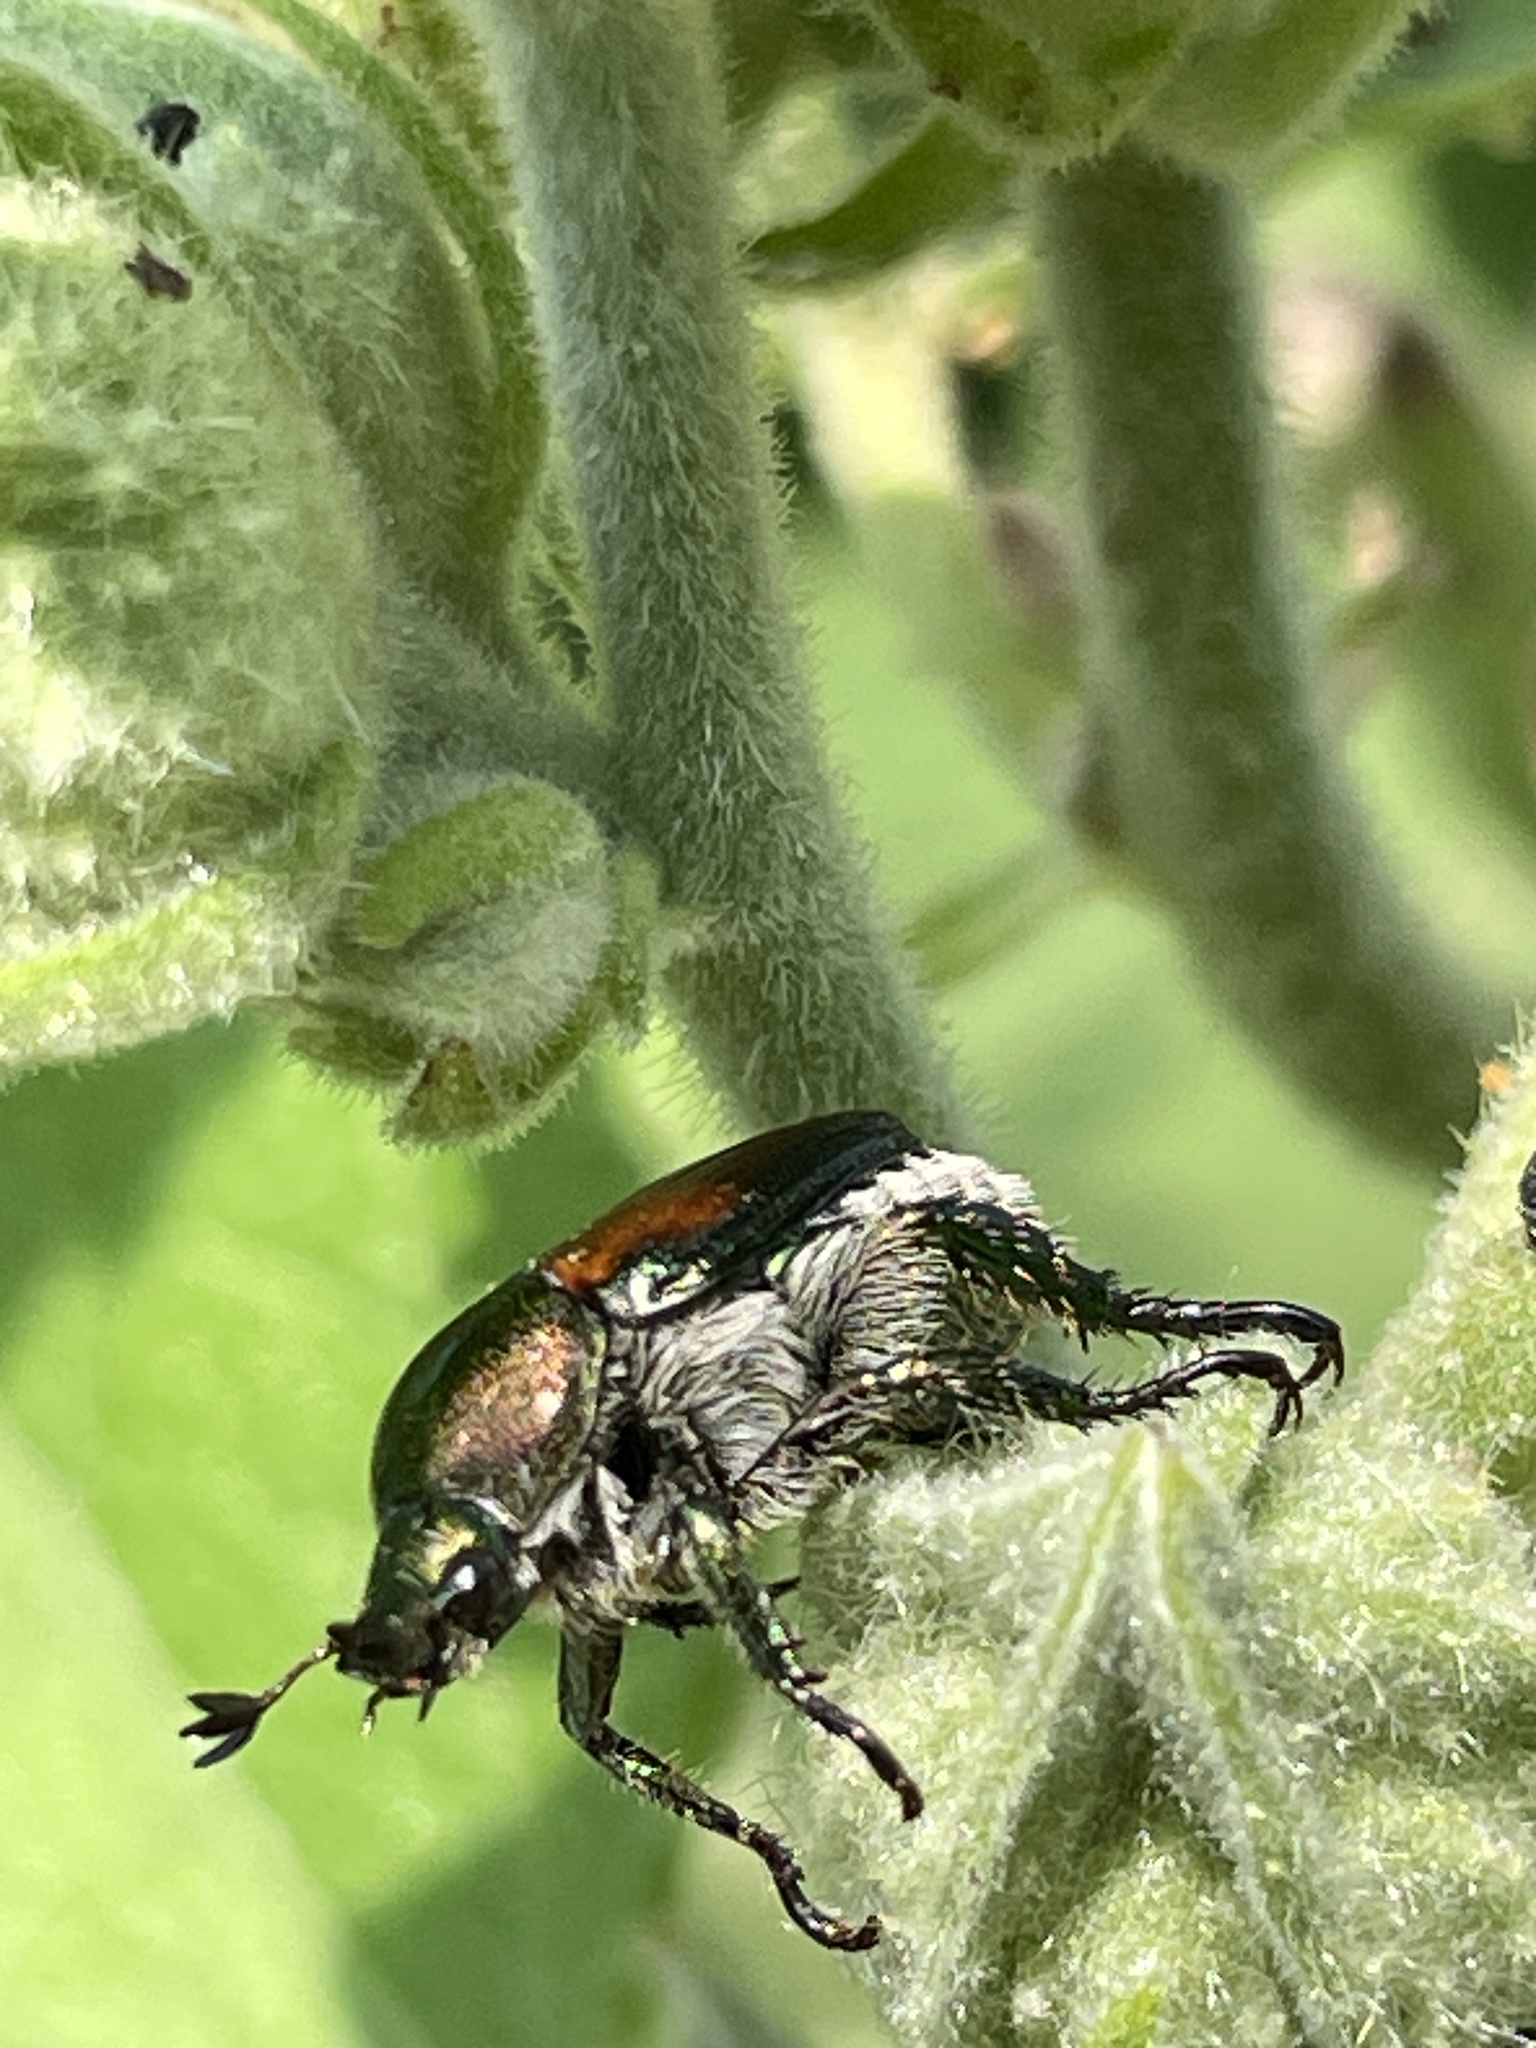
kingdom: Animalia
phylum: Arthropoda
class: Insecta
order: Coleoptera
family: Scarabaeidae
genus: Popillia
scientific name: Popillia japonica
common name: Japanese beetle
